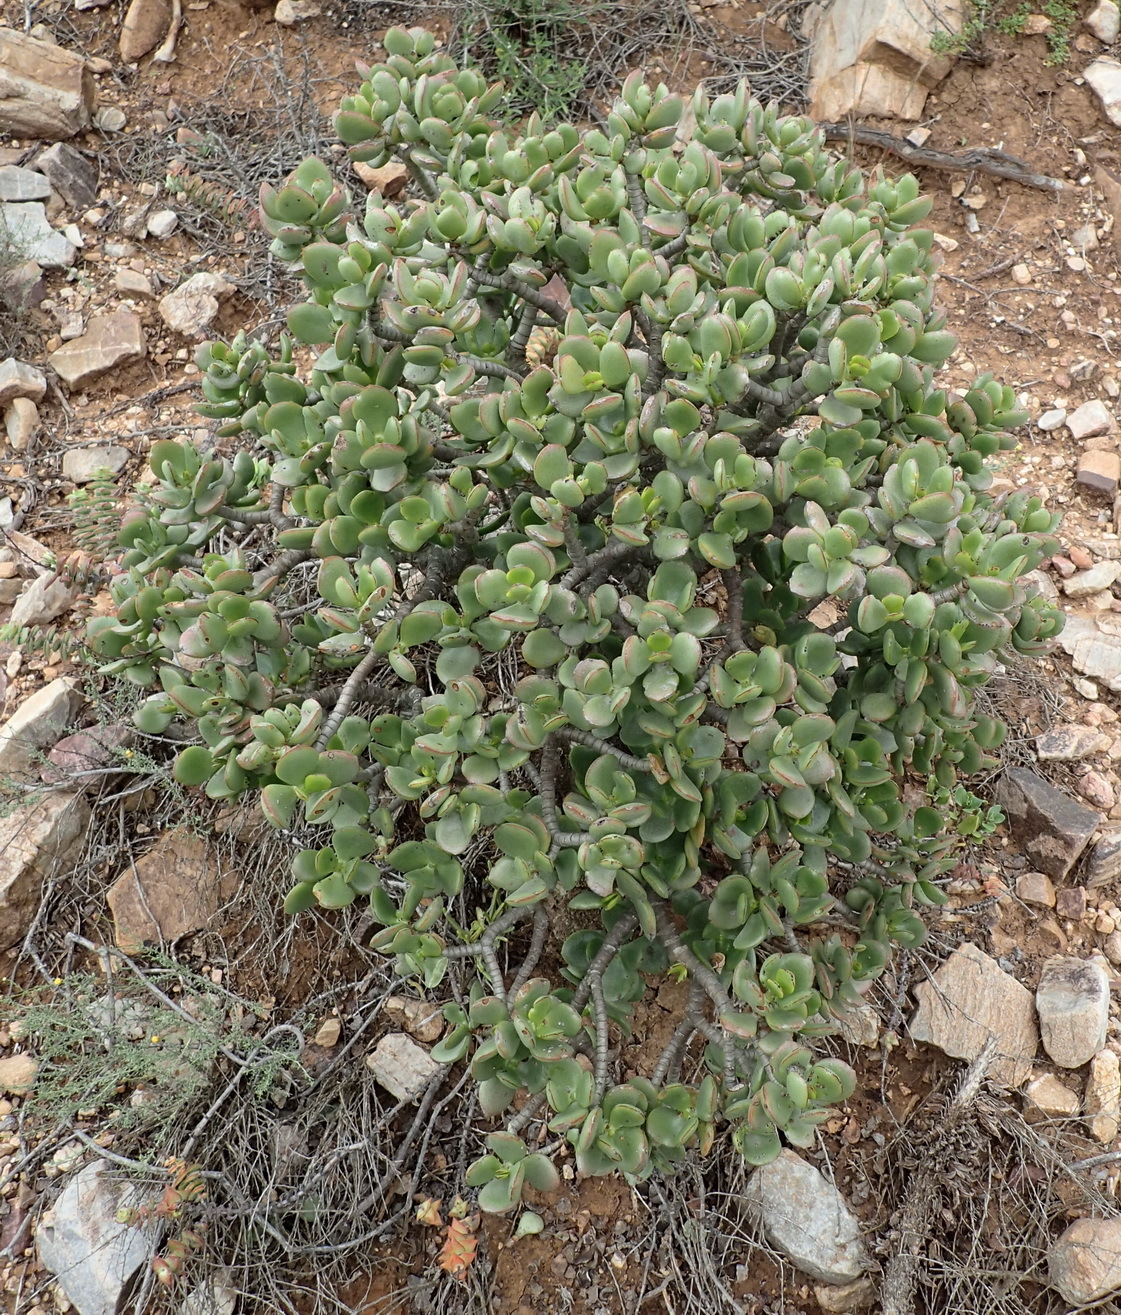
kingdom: Plantae
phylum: Tracheophyta
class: Magnoliopsida
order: Saxifragales
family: Crassulaceae
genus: Crassula
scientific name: Crassula ovata
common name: Jade plant
